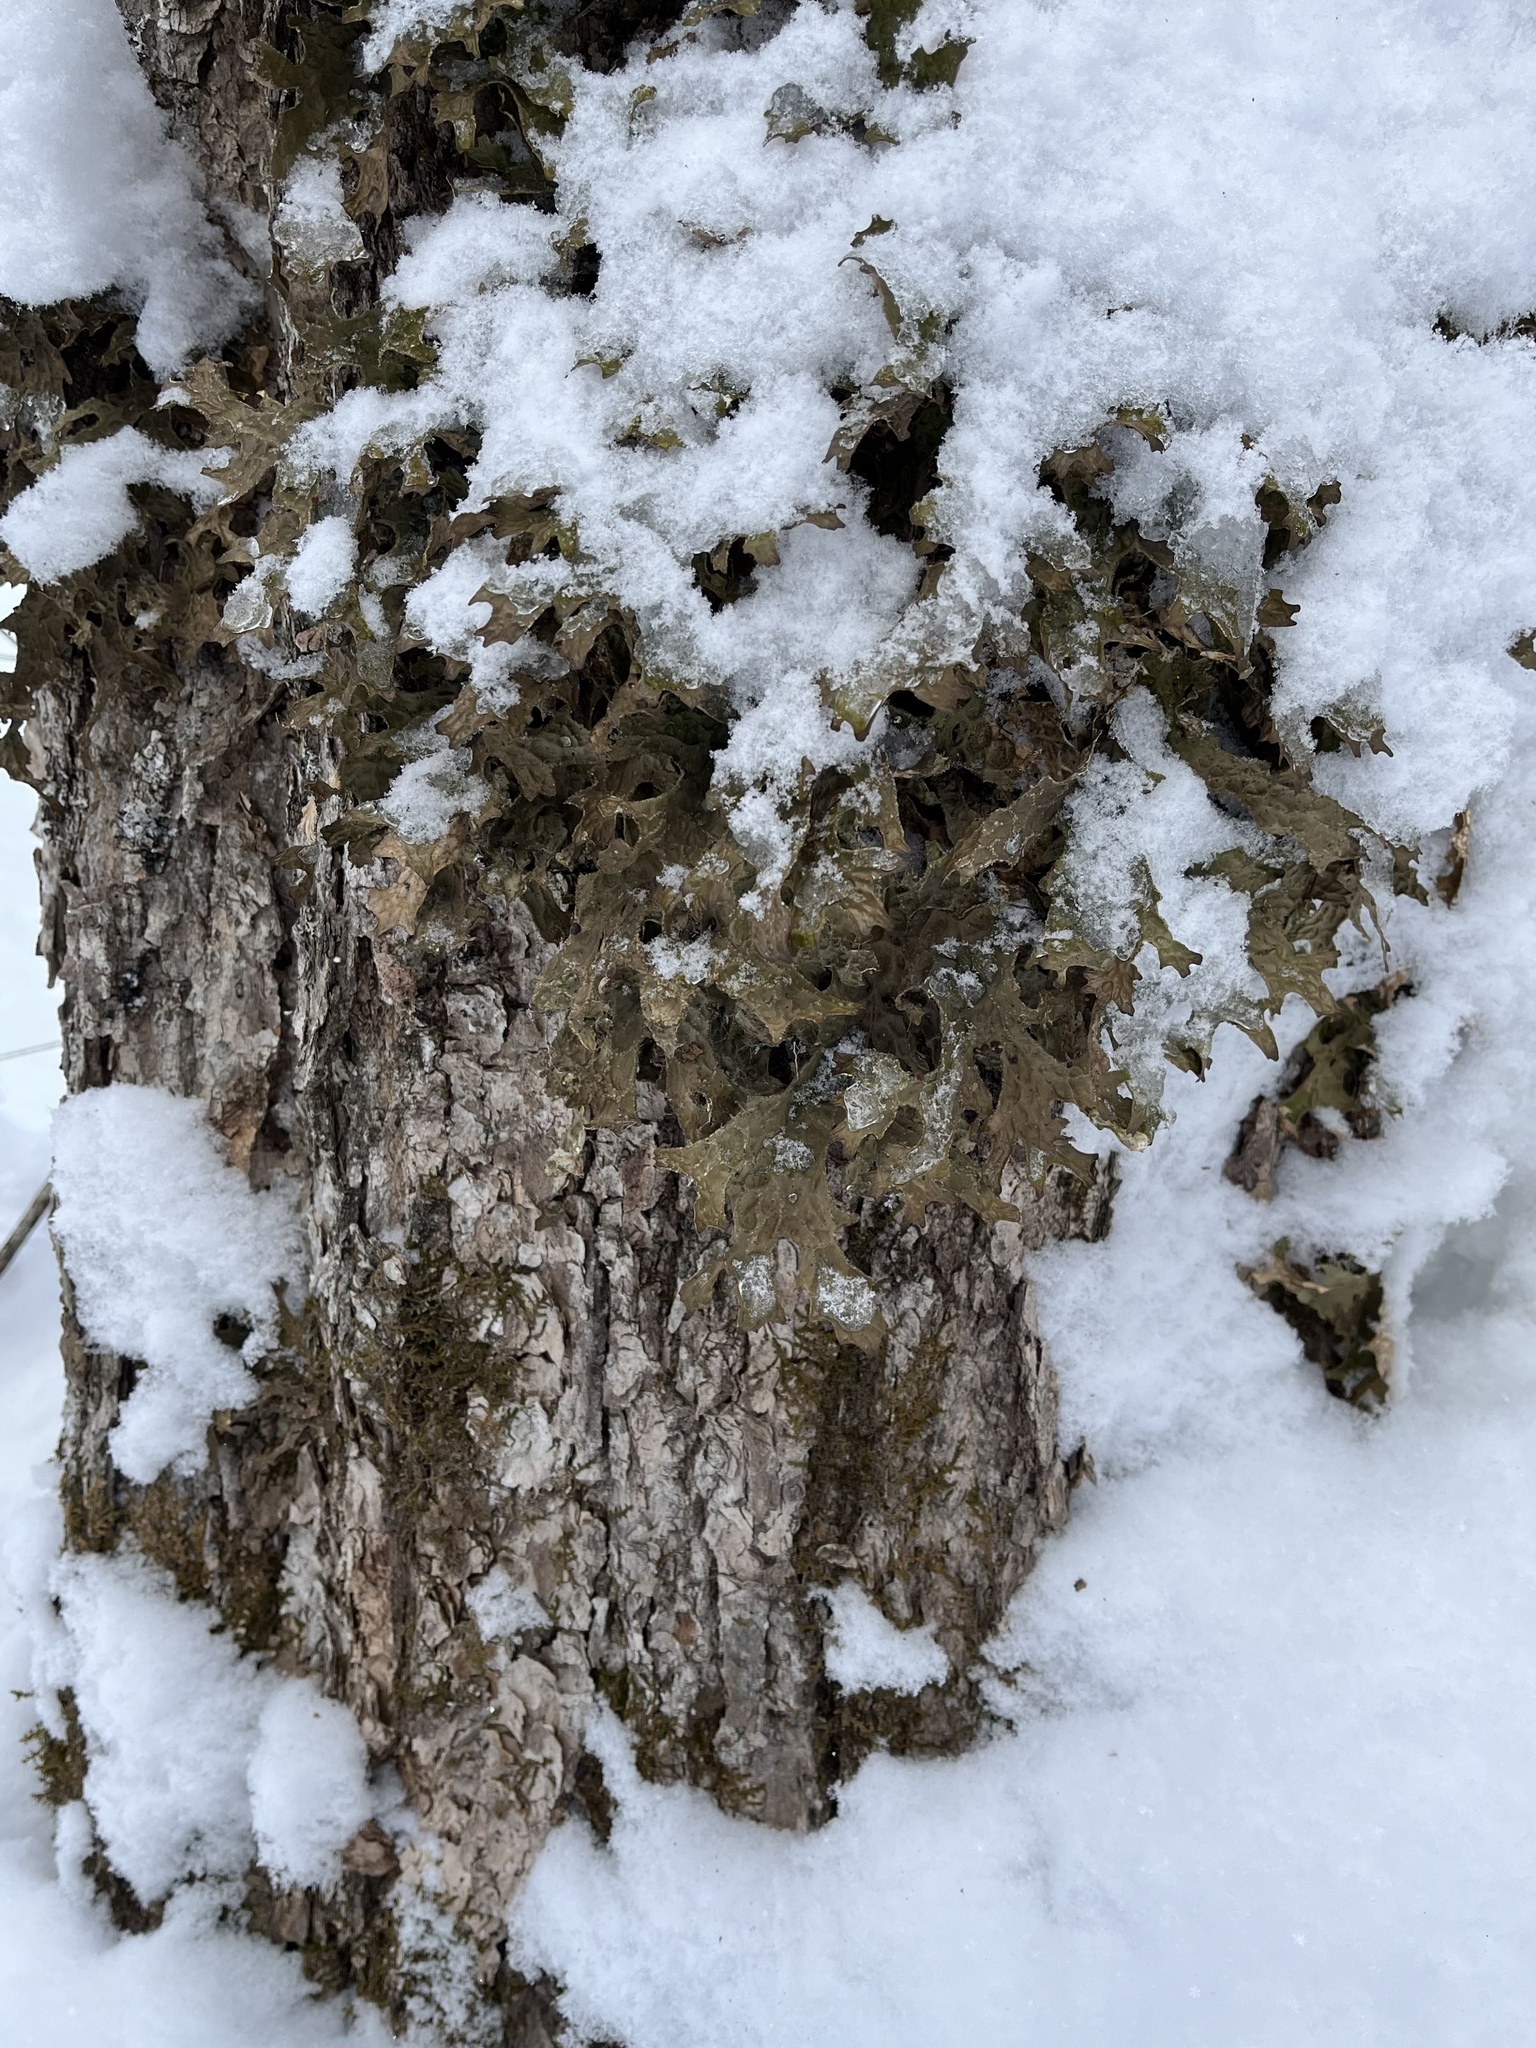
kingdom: Fungi
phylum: Ascomycota
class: Lecanoromycetes
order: Peltigerales
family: Lobariaceae
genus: Lobaria
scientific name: Lobaria pulmonaria
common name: Lungwort
